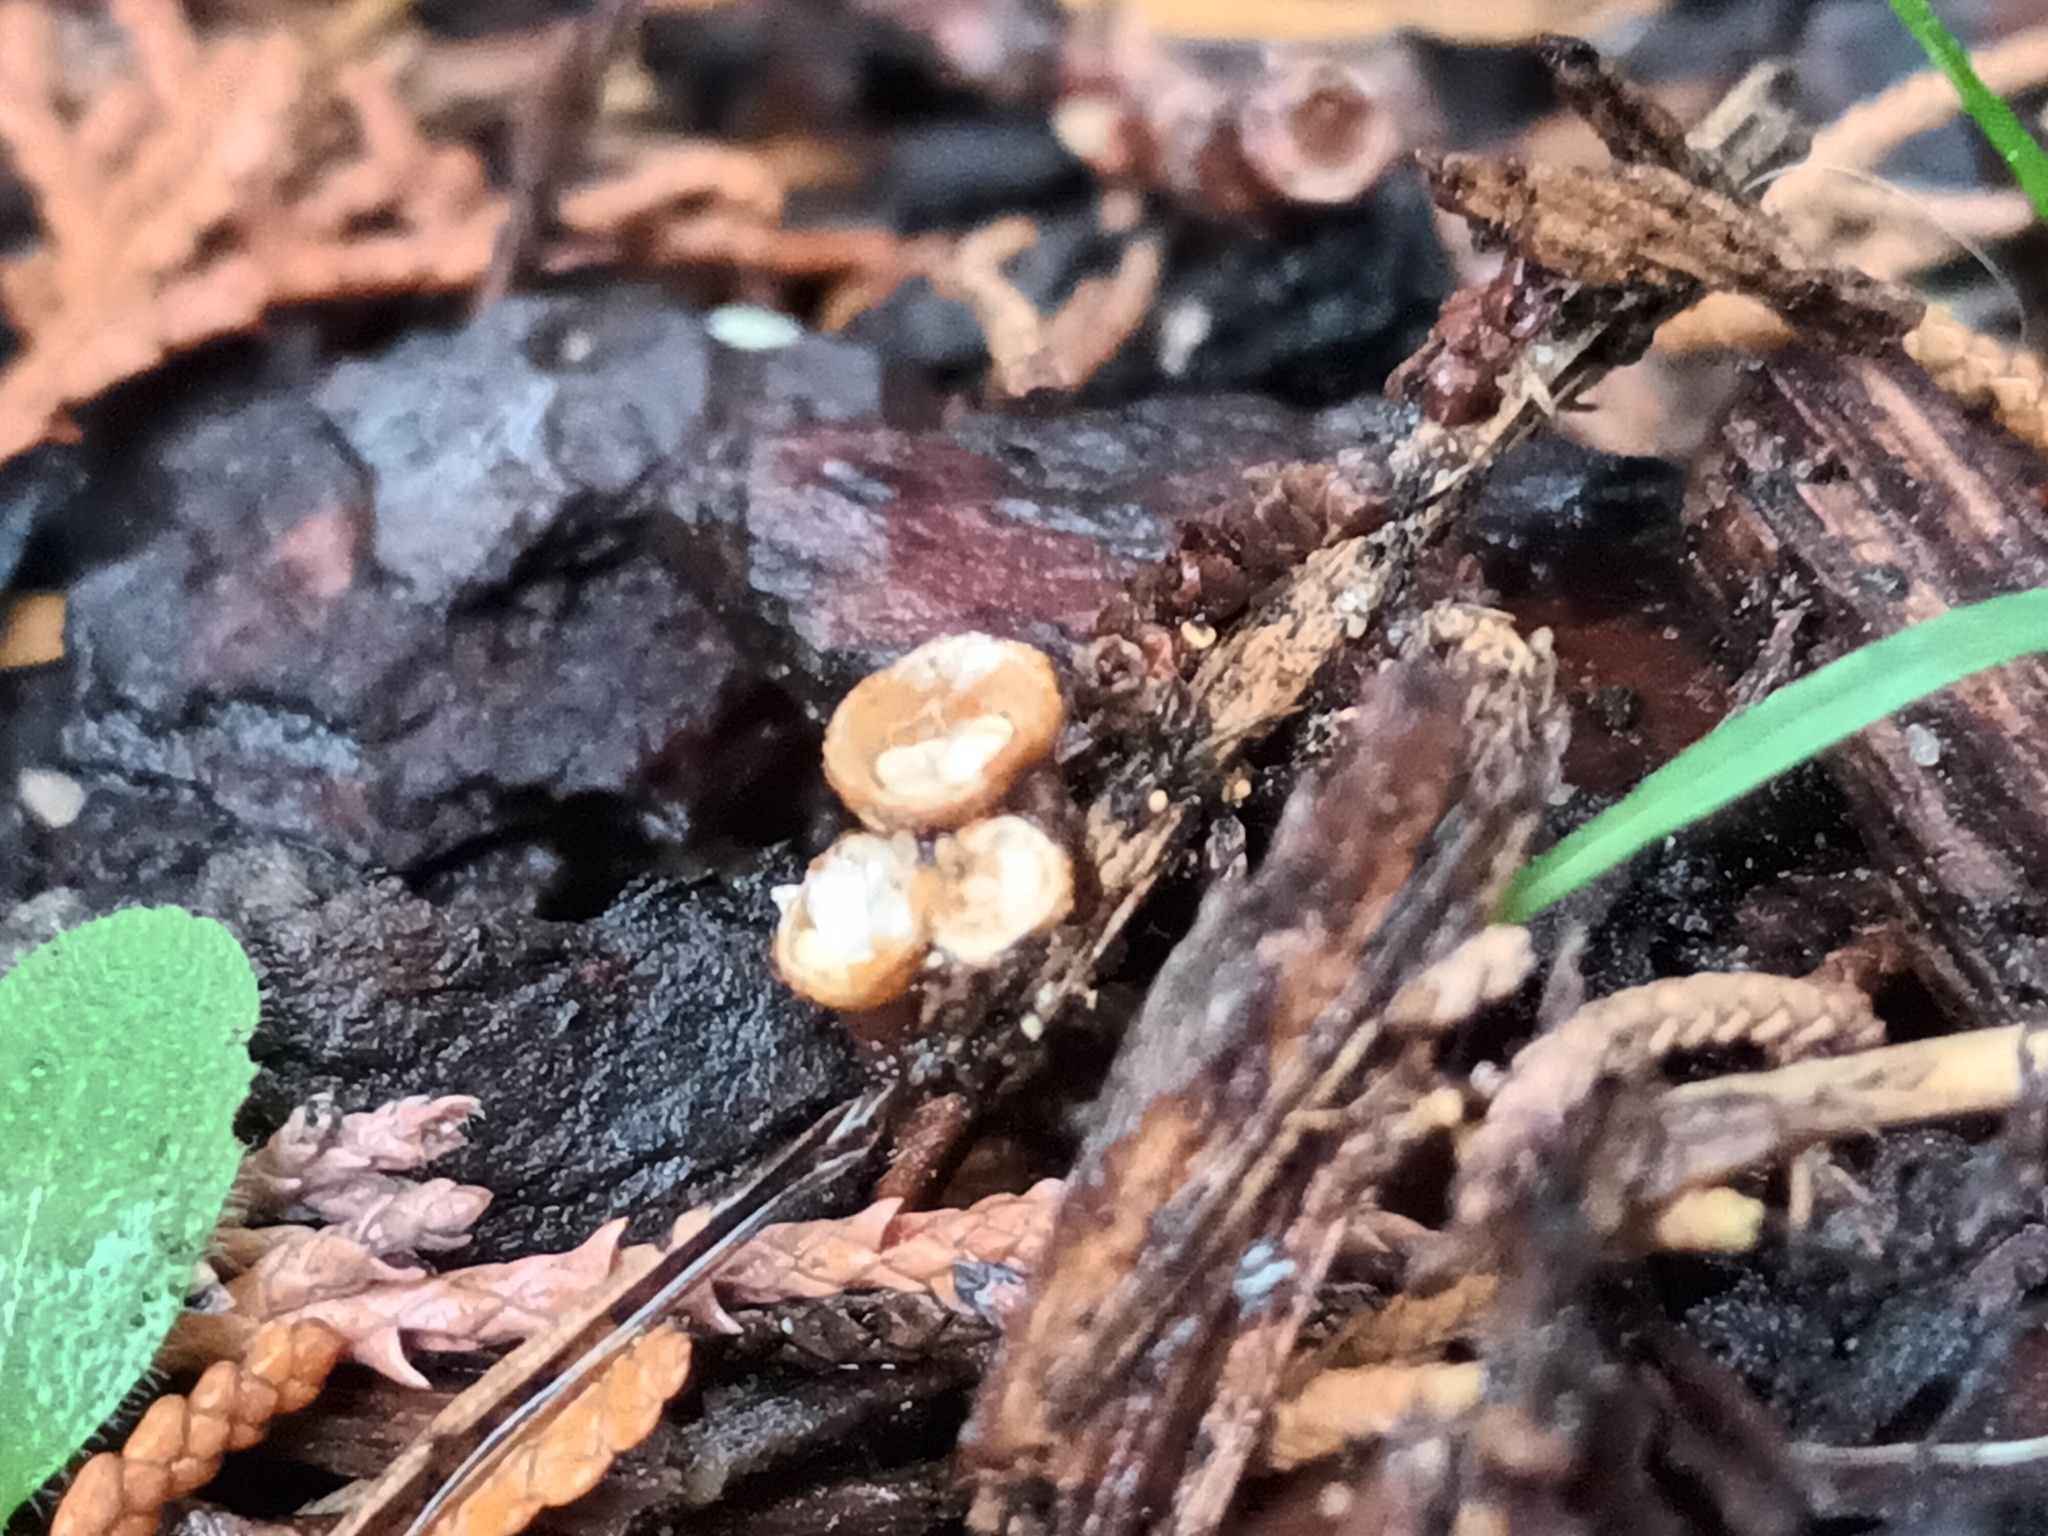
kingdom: Fungi
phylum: Basidiomycota
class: Agaricomycetes
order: Agaricales
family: Nidulariaceae
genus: Crucibulum
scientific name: Crucibulum laeve
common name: Common bird's nest
